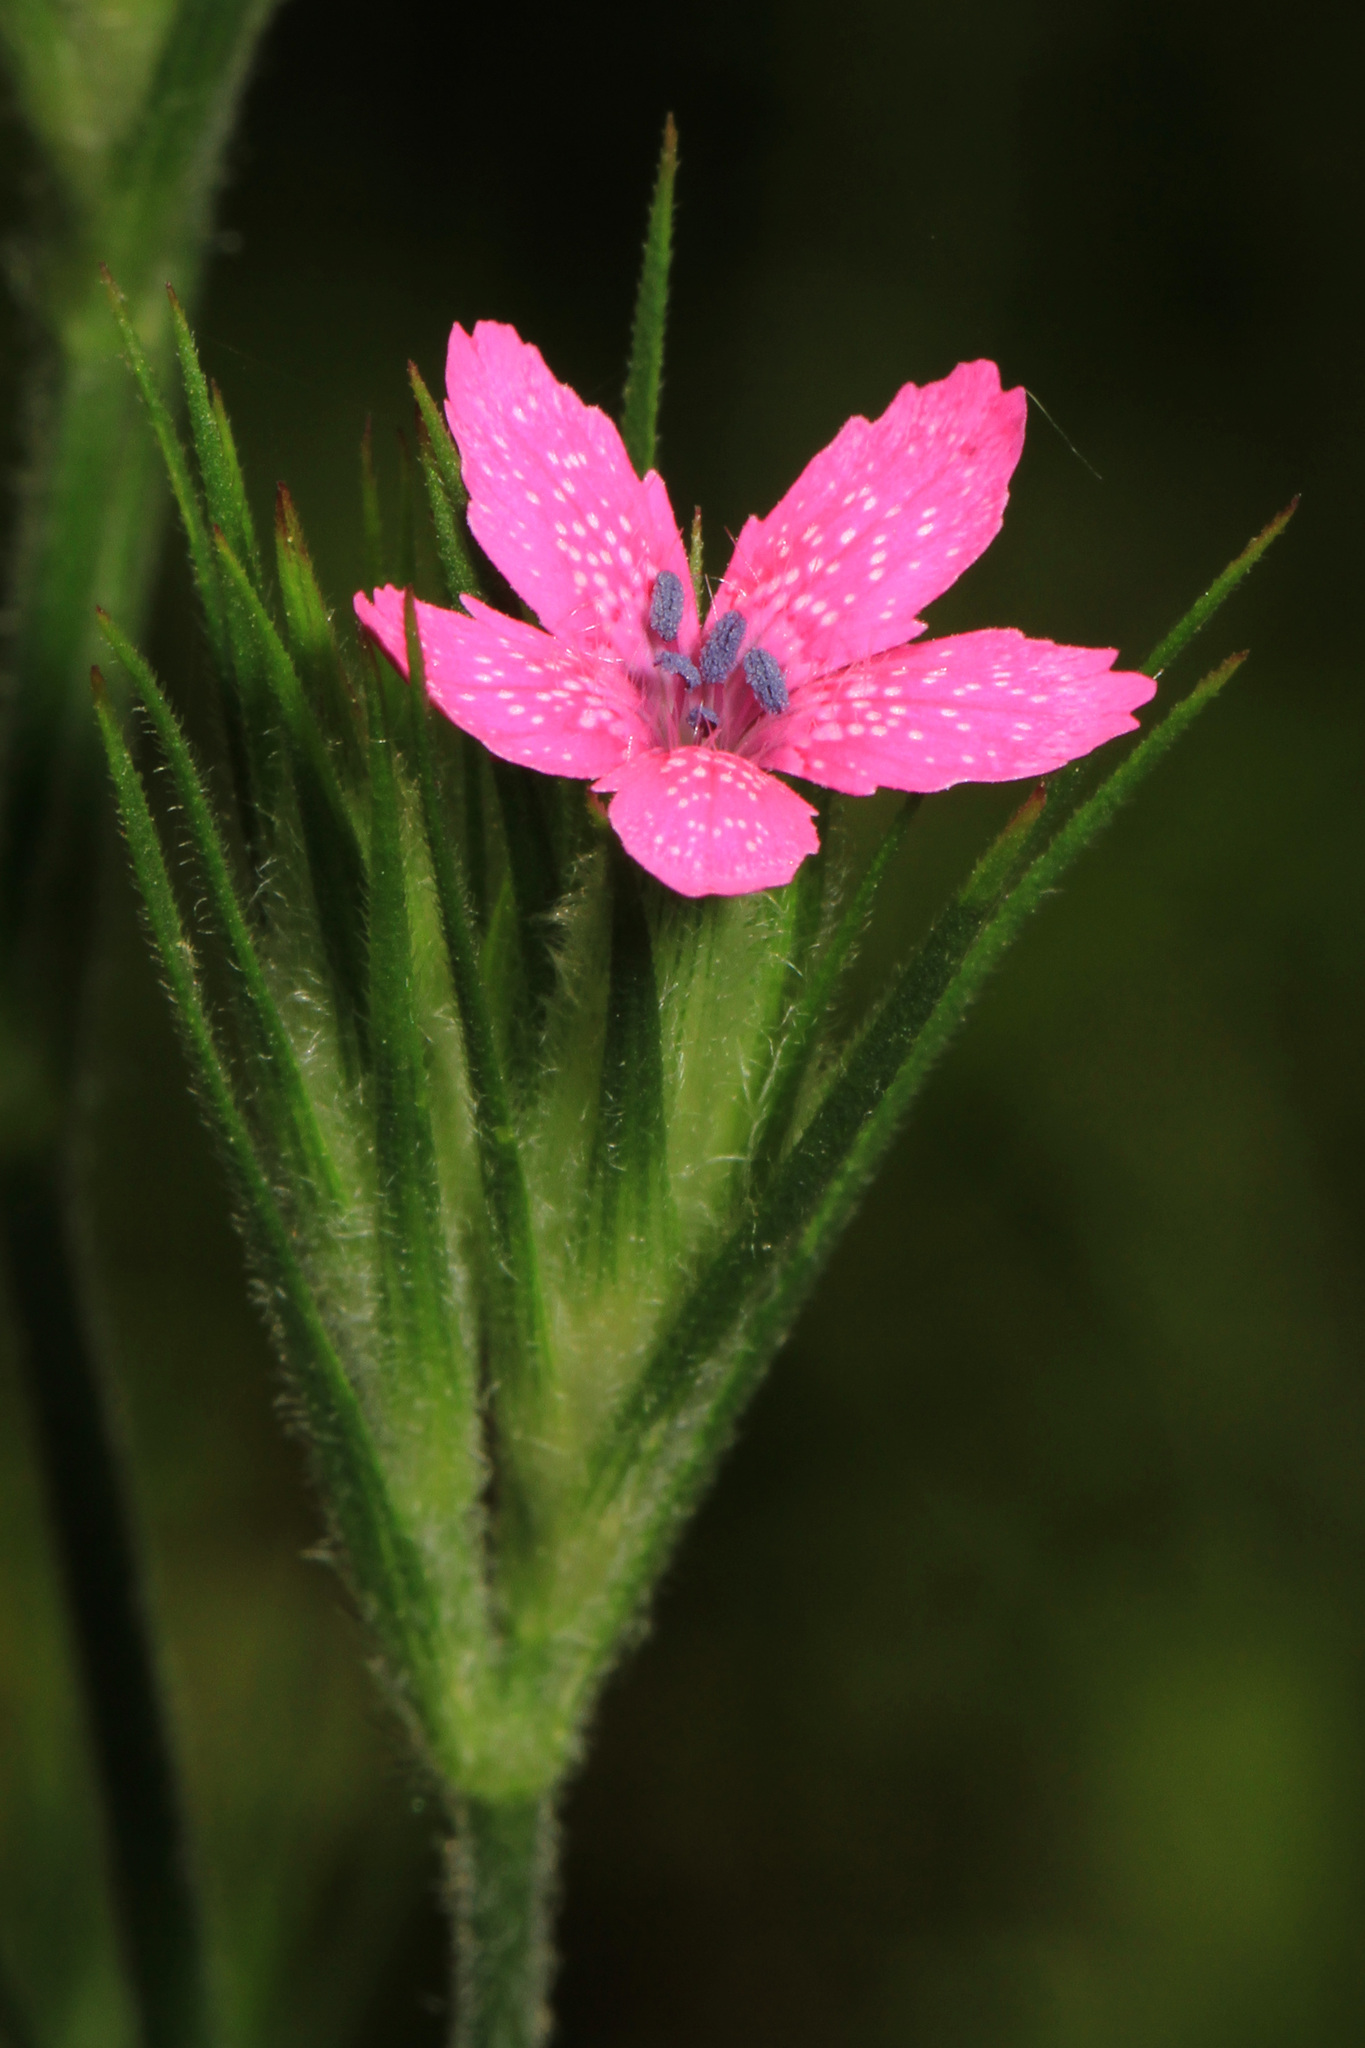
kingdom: Plantae
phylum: Tracheophyta
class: Magnoliopsida
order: Caryophyllales
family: Caryophyllaceae
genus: Dianthus
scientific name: Dianthus armeria
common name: Deptford pink
